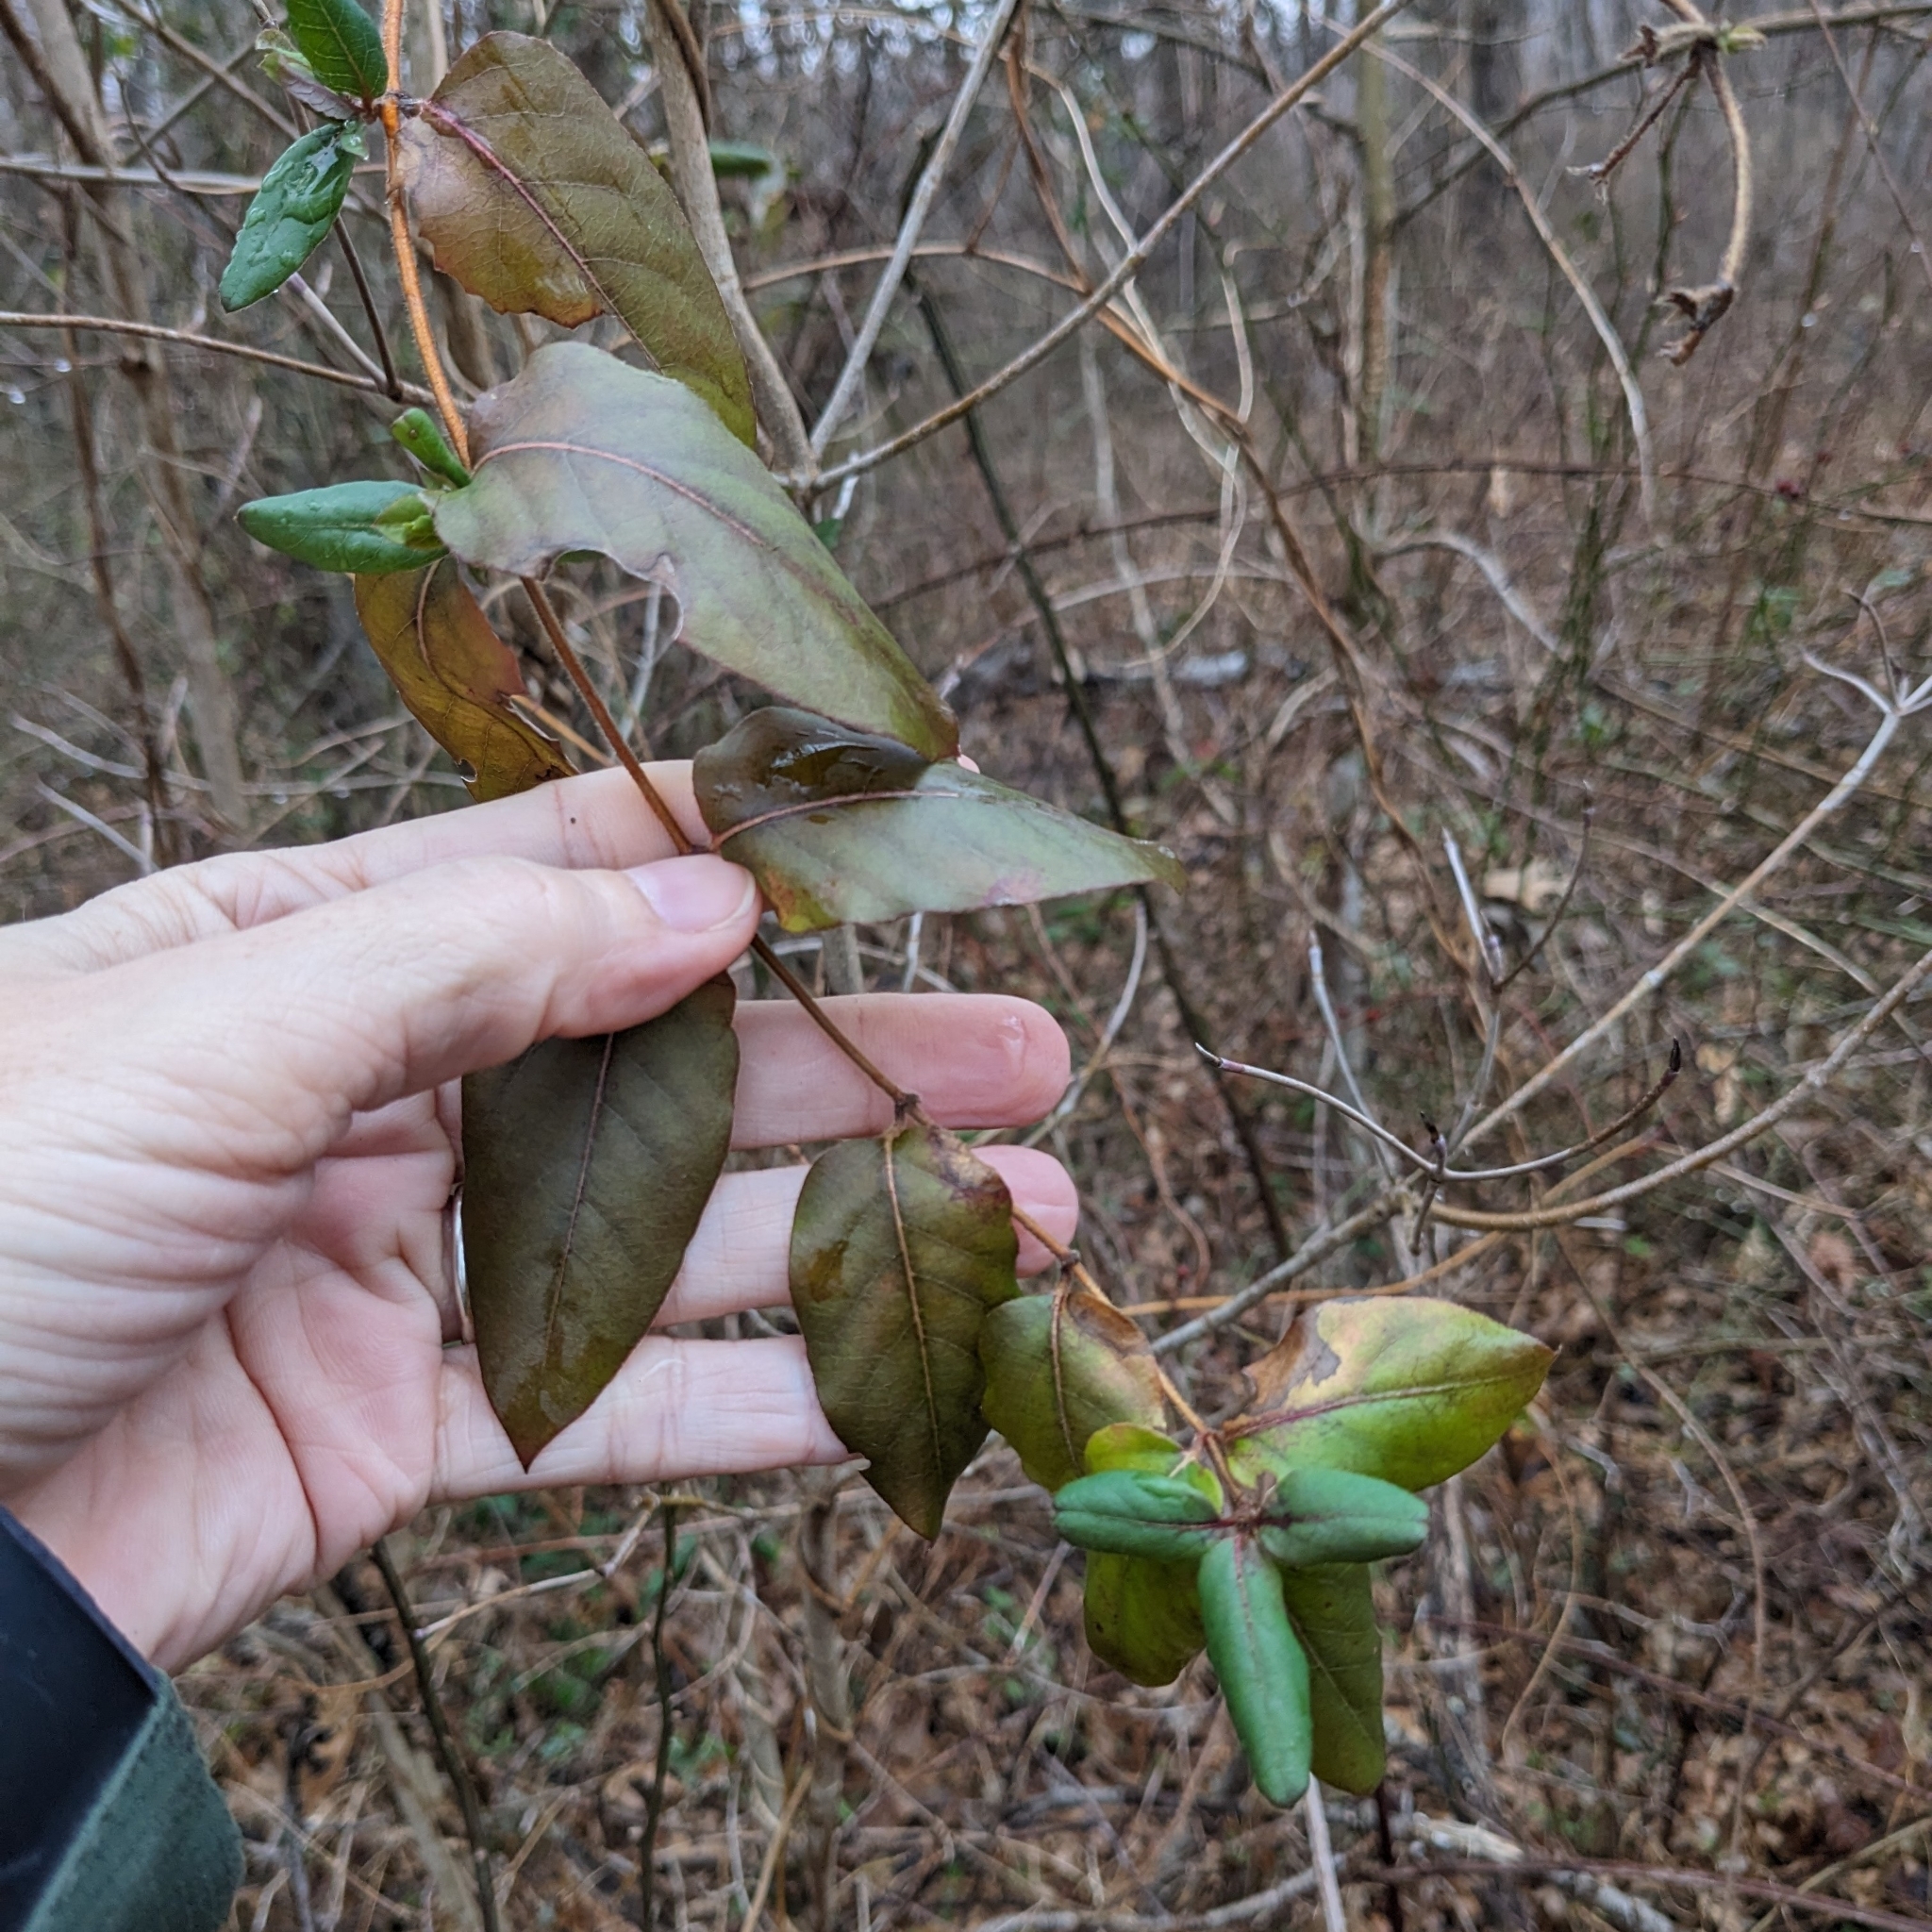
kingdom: Plantae
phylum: Tracheophyta
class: Magnoliopsida
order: Dipsacales
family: Caprifoliaceae
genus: Lonicera
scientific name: Lonicera japonica
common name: Japanese honeysuckle
